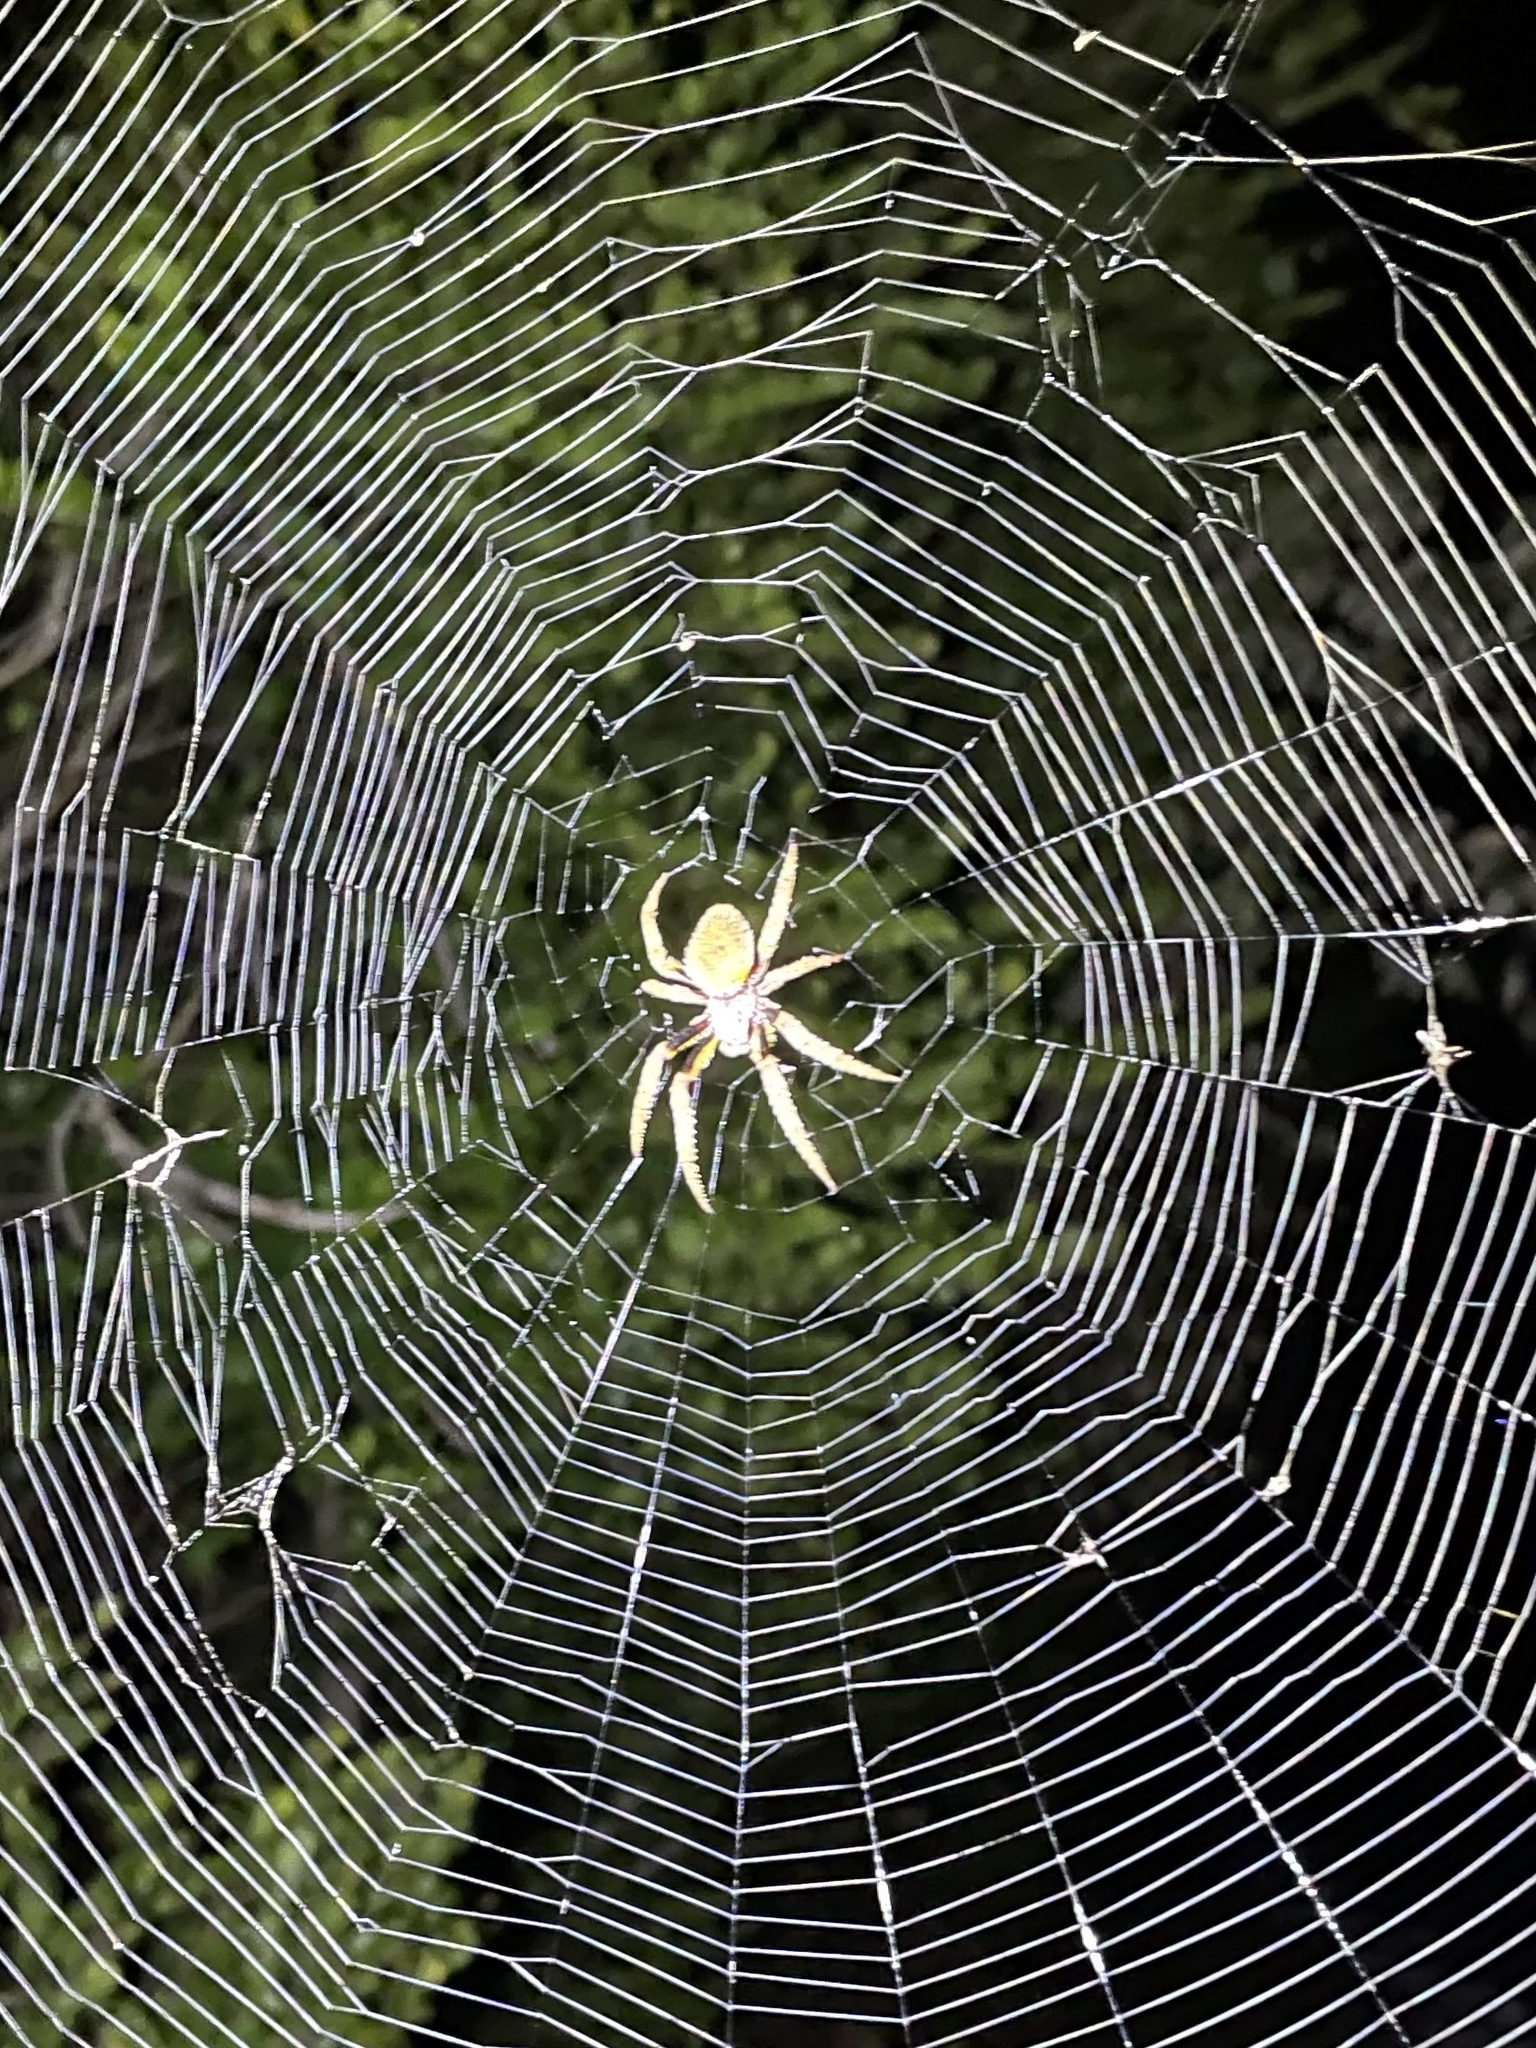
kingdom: Animalia
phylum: Arthropoda
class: Arachnida
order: Araneae
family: Araneidae
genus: Eriophora
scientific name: Eriophora ravilla
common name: Orb weavers
